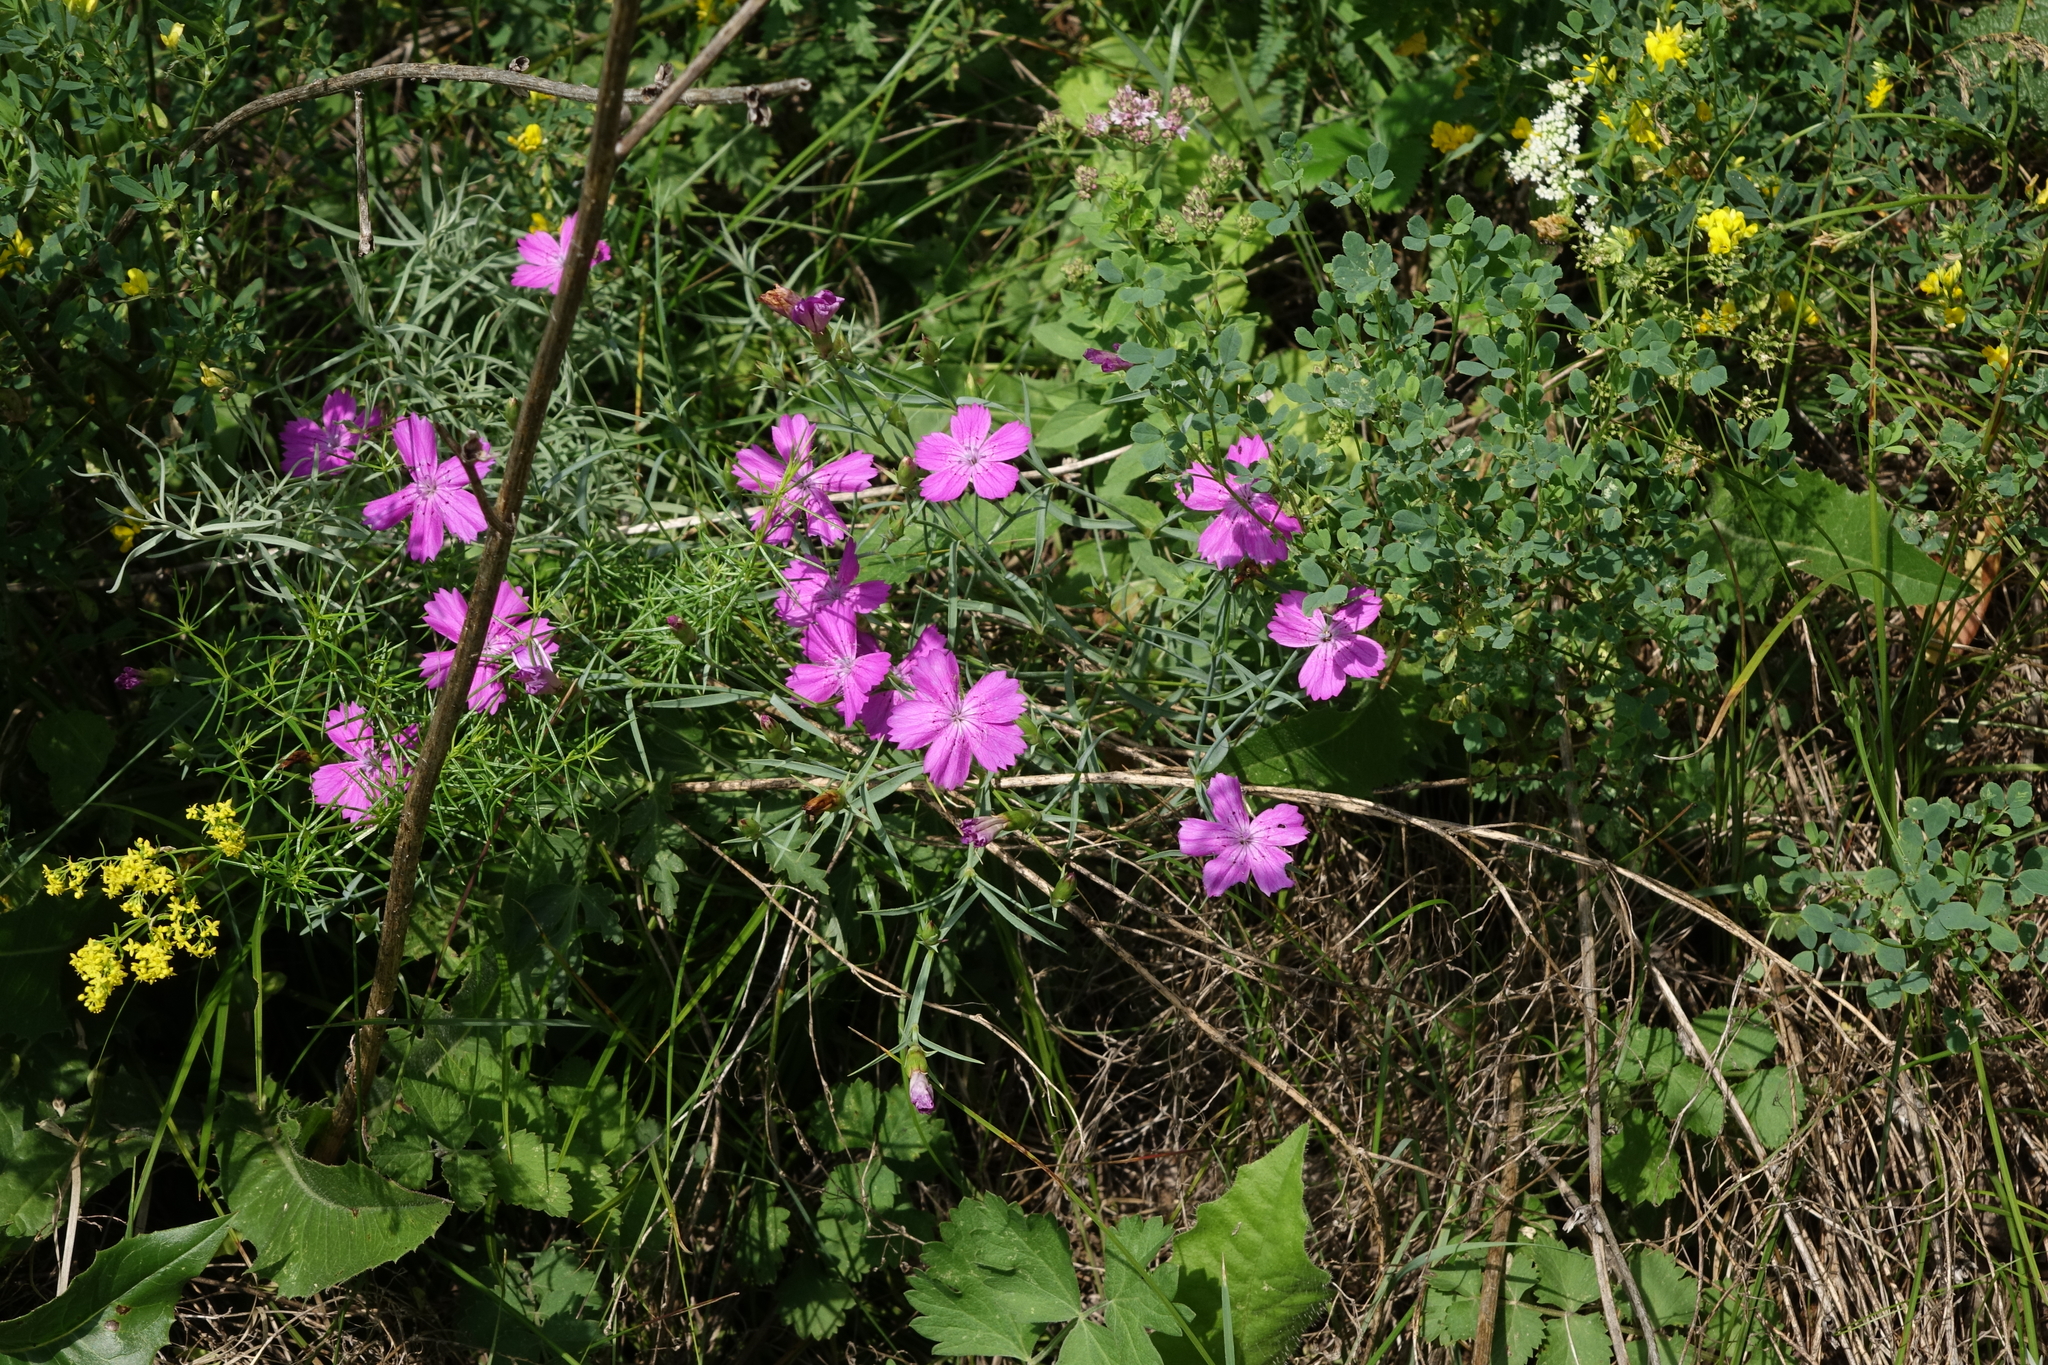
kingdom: Plantae
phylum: Tracheophyta
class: Magnoliopsida
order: Caryophyllales
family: Caryophyllaceae
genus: Dianthus
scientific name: Dianthus chinensis
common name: Rainbow pink
